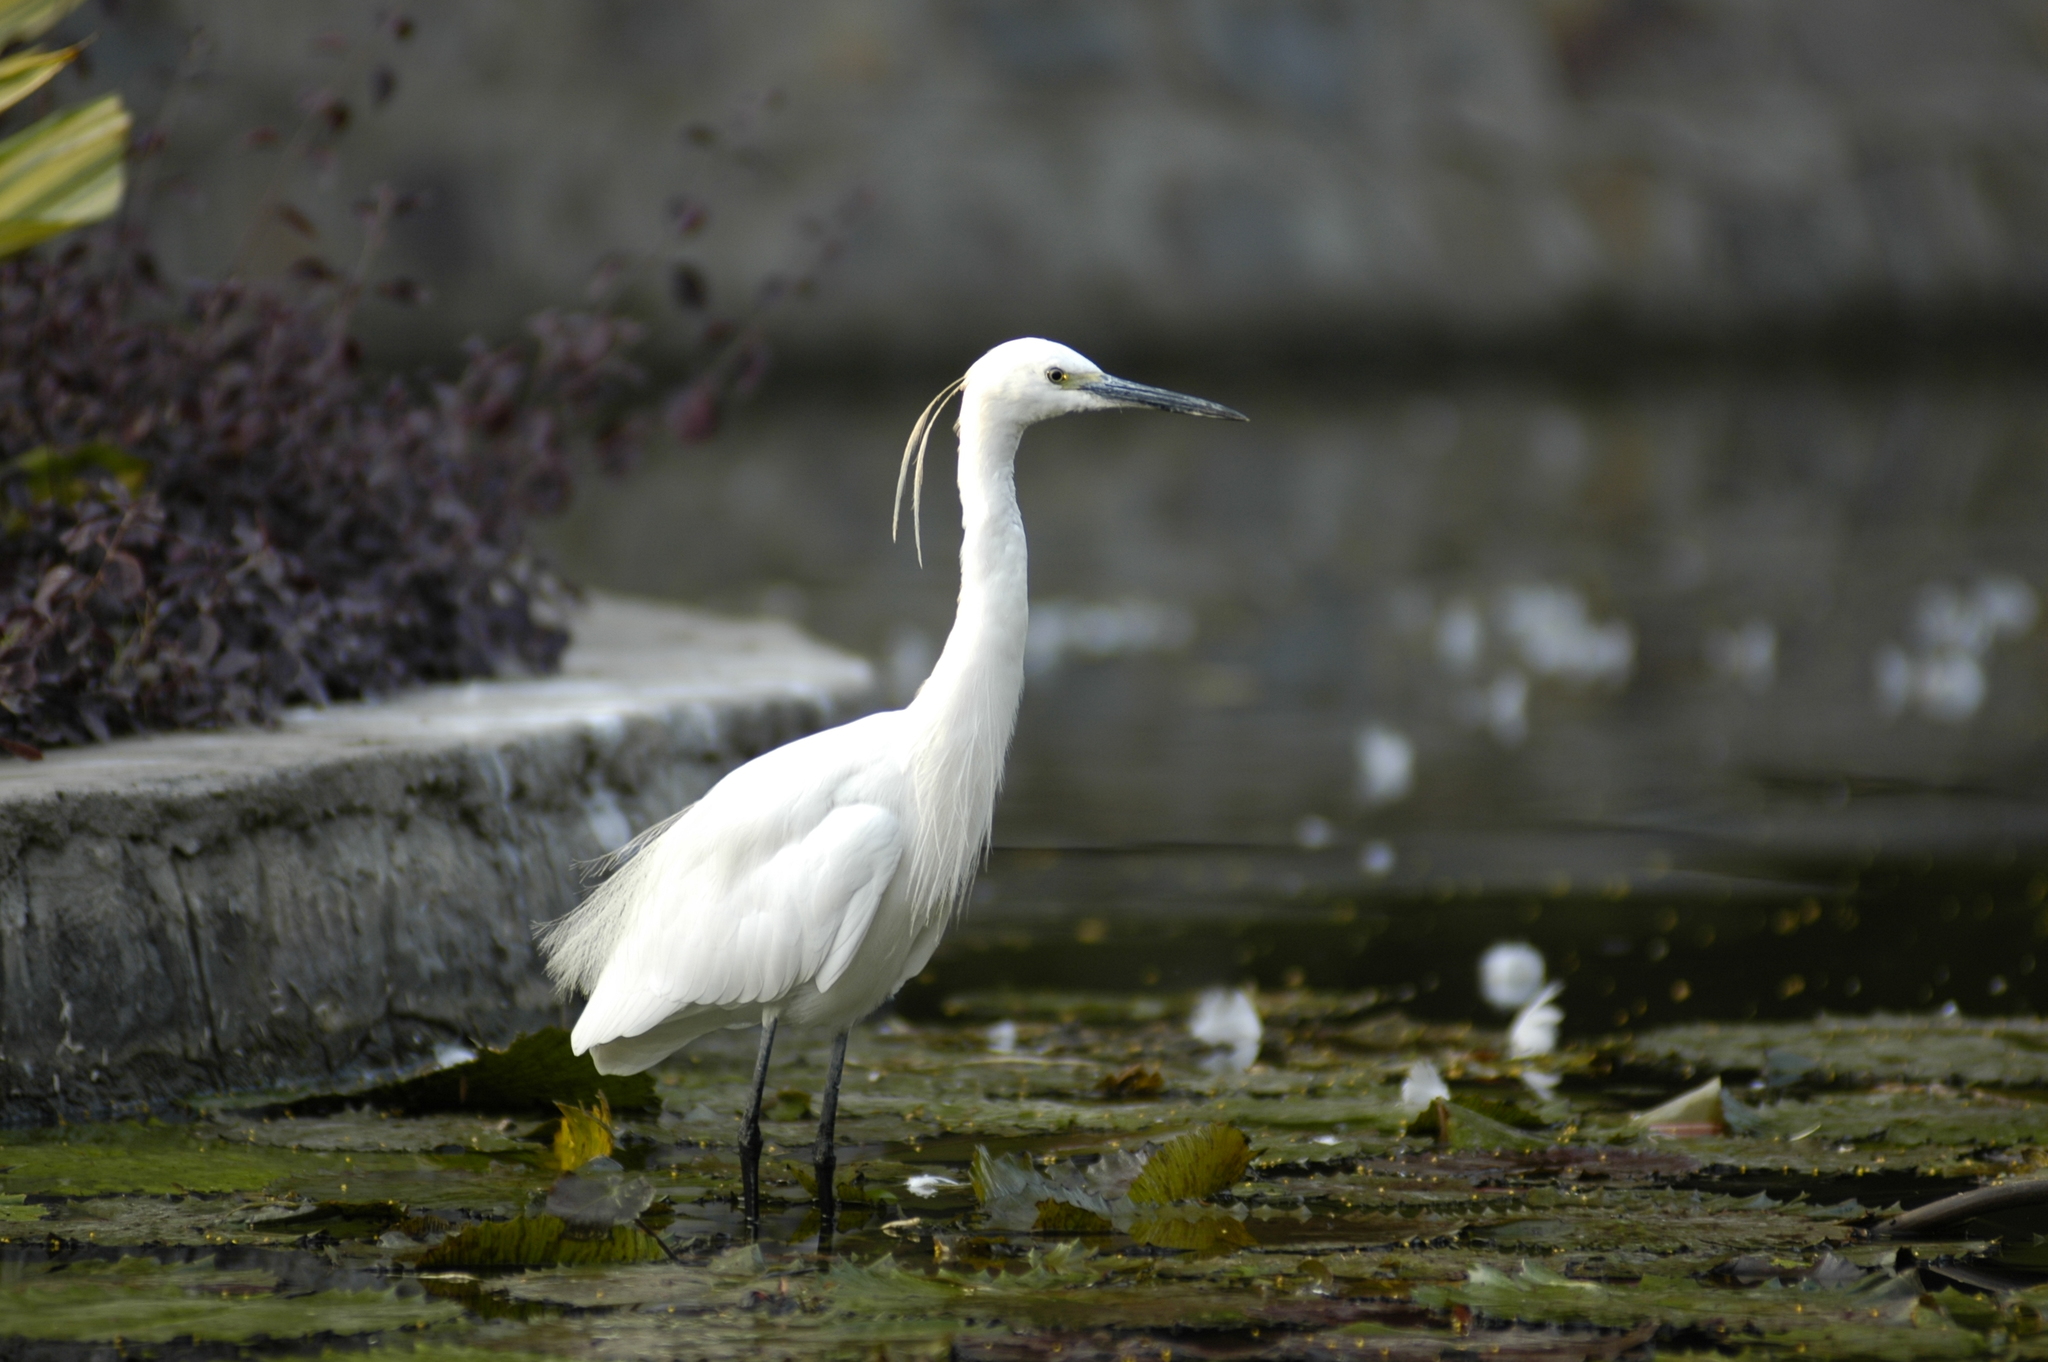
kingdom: Animalia
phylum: Chordata
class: Aves
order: Pelecaniformes
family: Ardeidae
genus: Egretta
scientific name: Egretta garzetta
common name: Little egret
